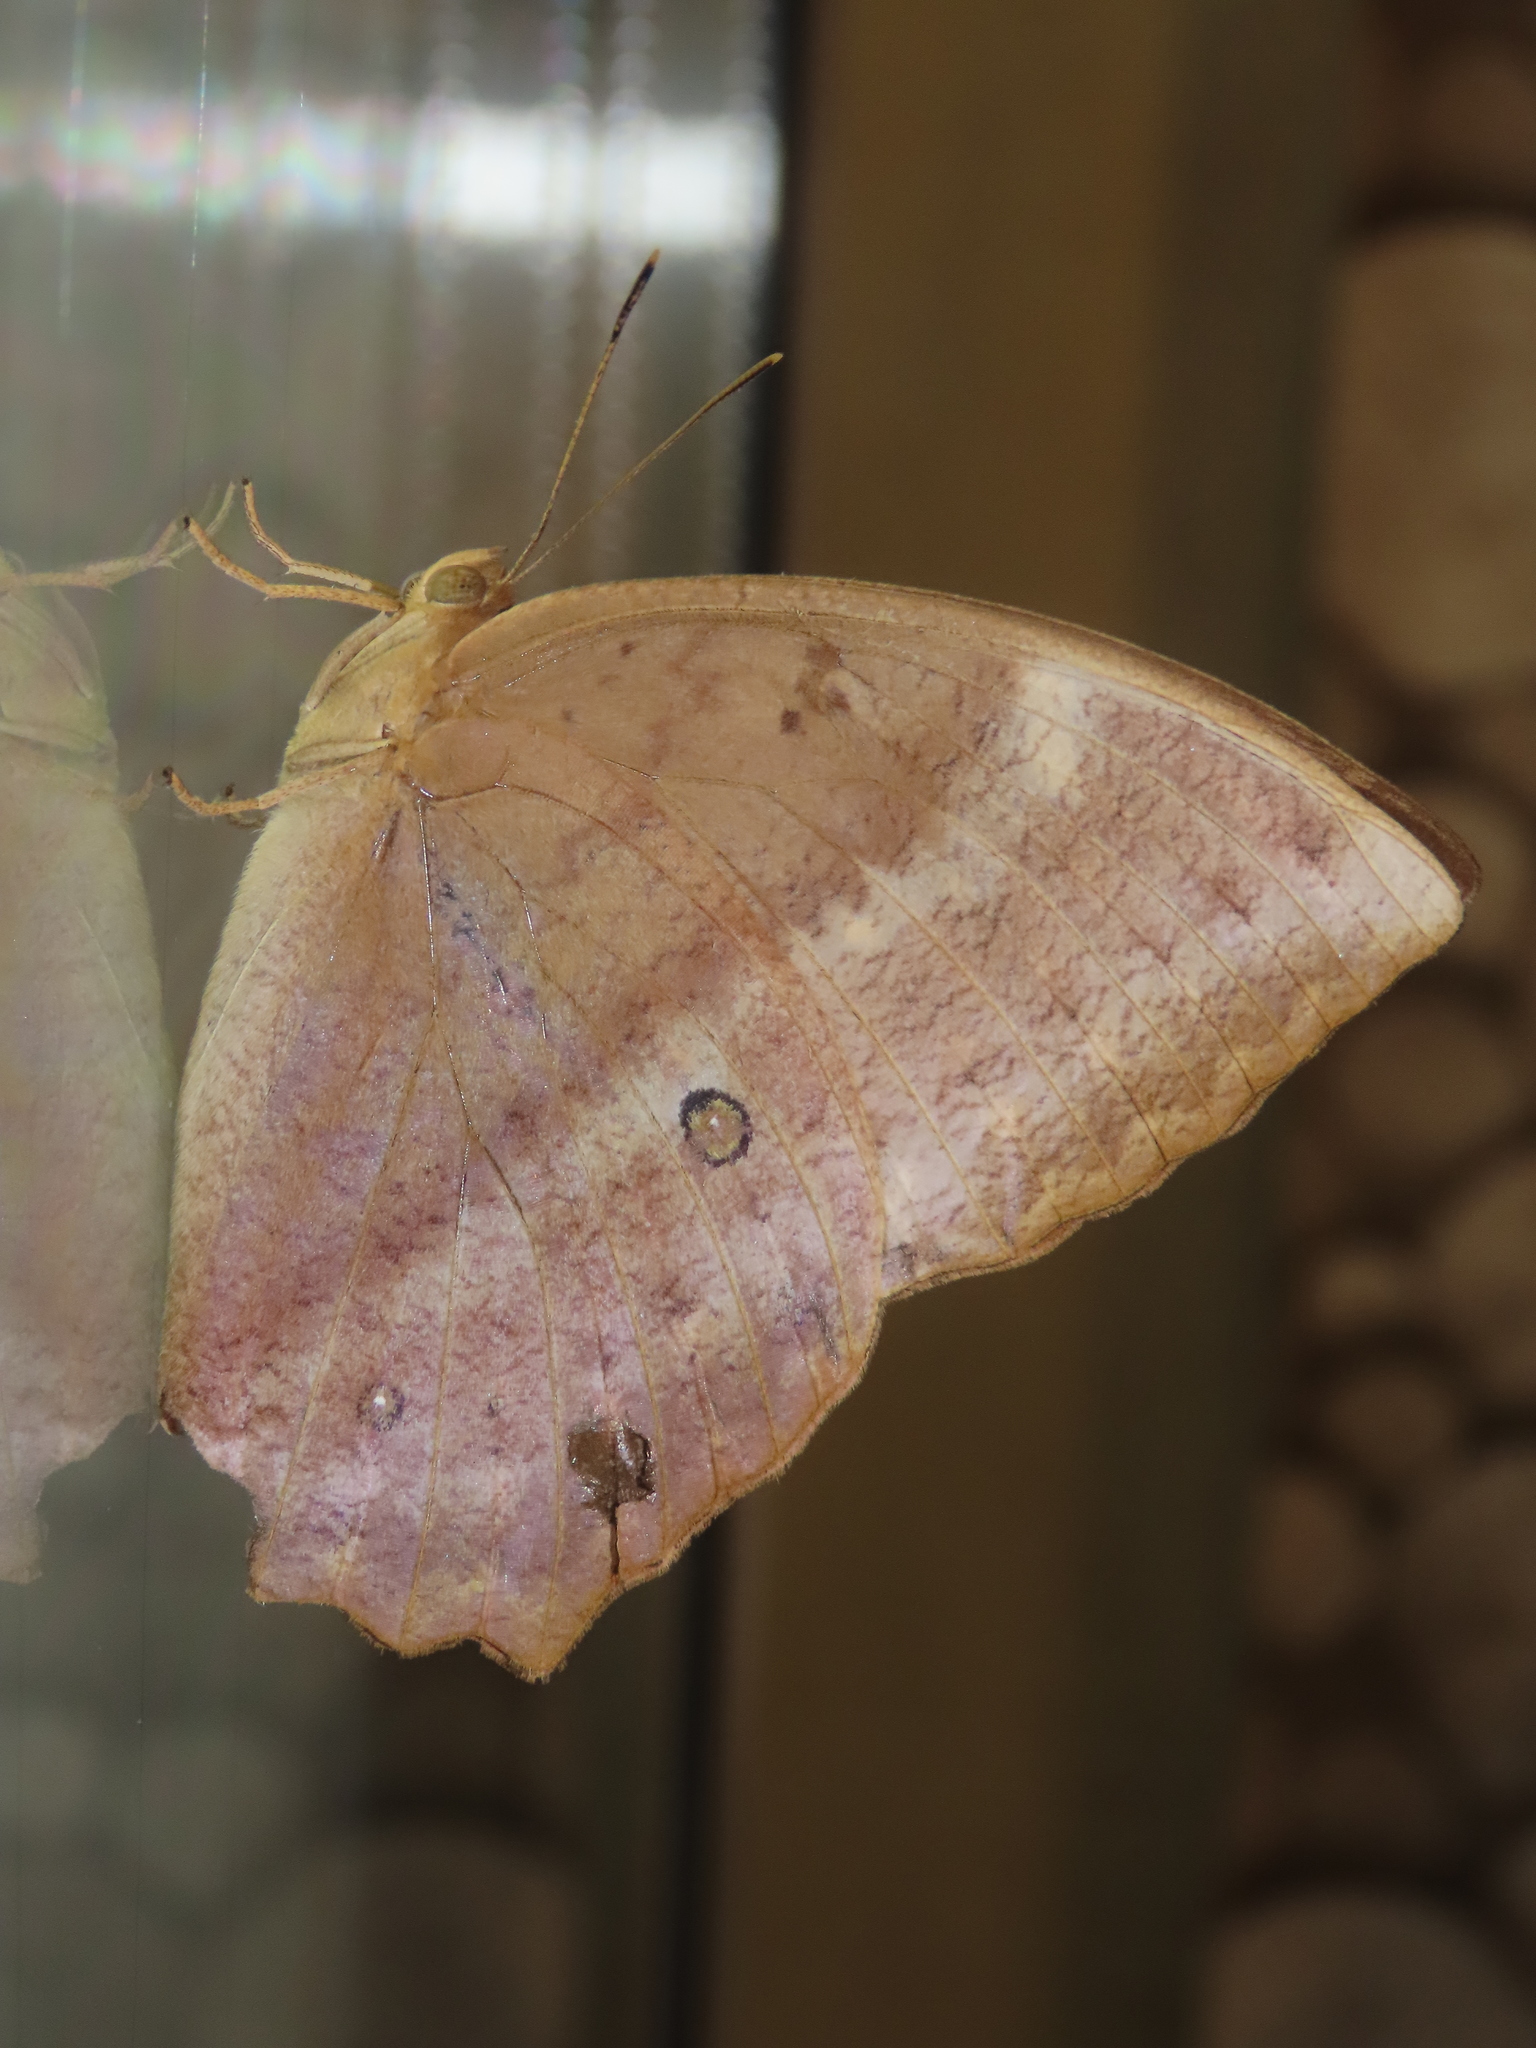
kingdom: Animalia
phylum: Arthropoda
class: Insecta
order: Lepidoptera
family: Nymphalidae
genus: Discophora
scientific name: Discophora sondaica
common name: Common duffer
